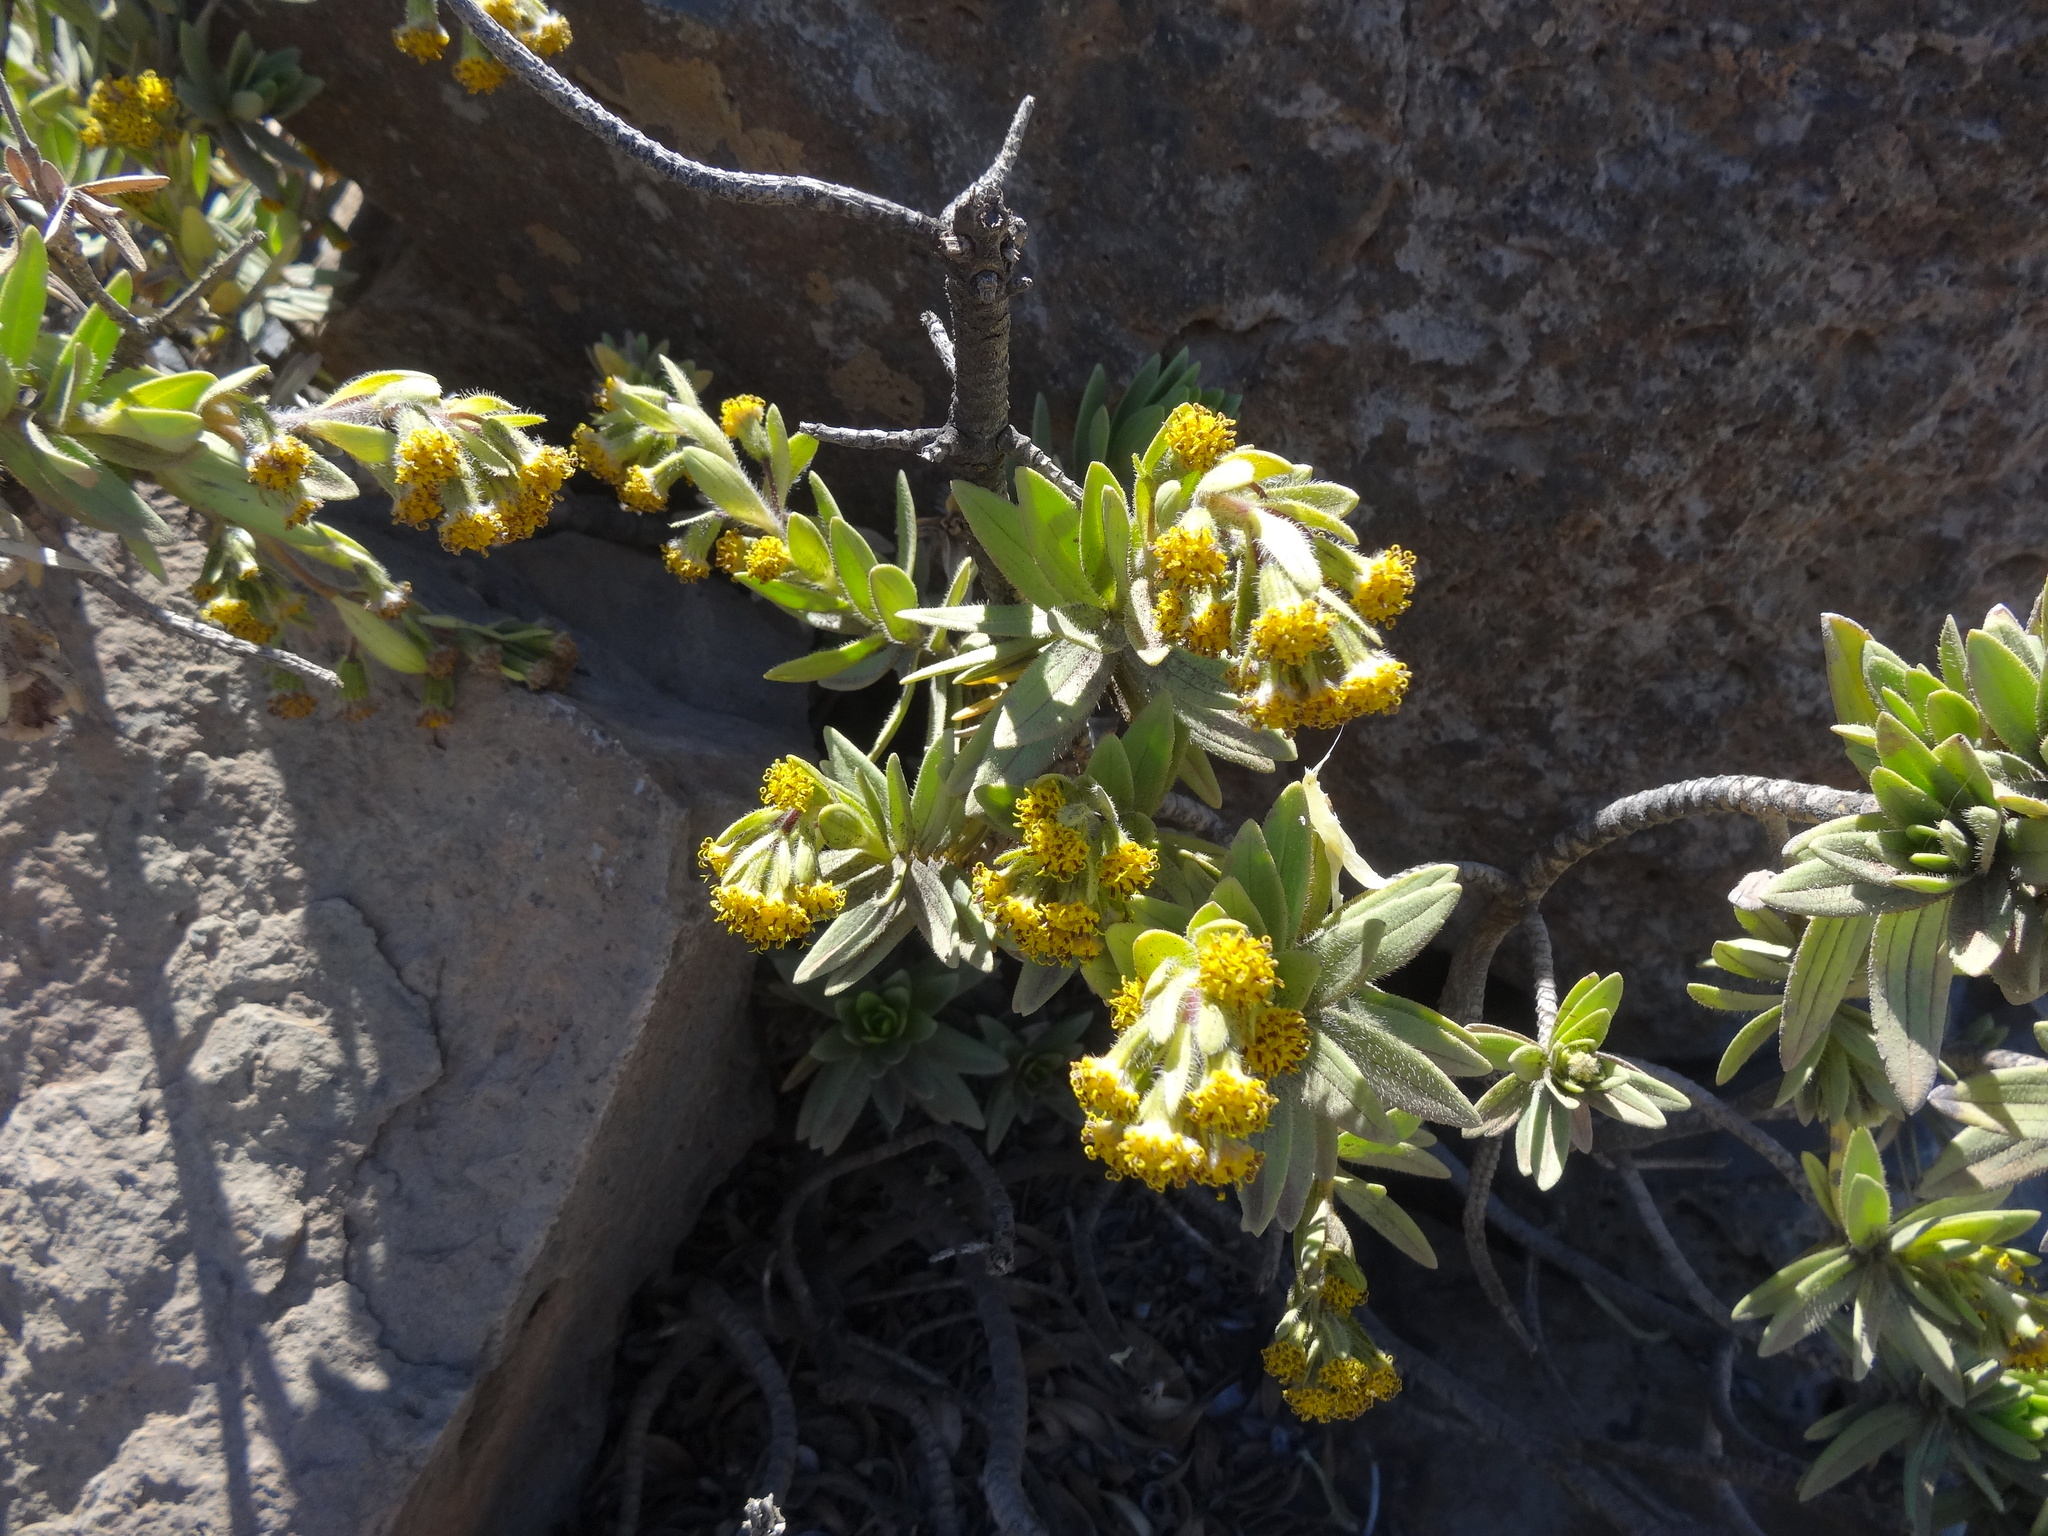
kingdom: Plantae
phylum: Tracheophyta
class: Magnoliopsida
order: Asterales
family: Asteraceae
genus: Dubautia
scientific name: Dubautia menziesii
